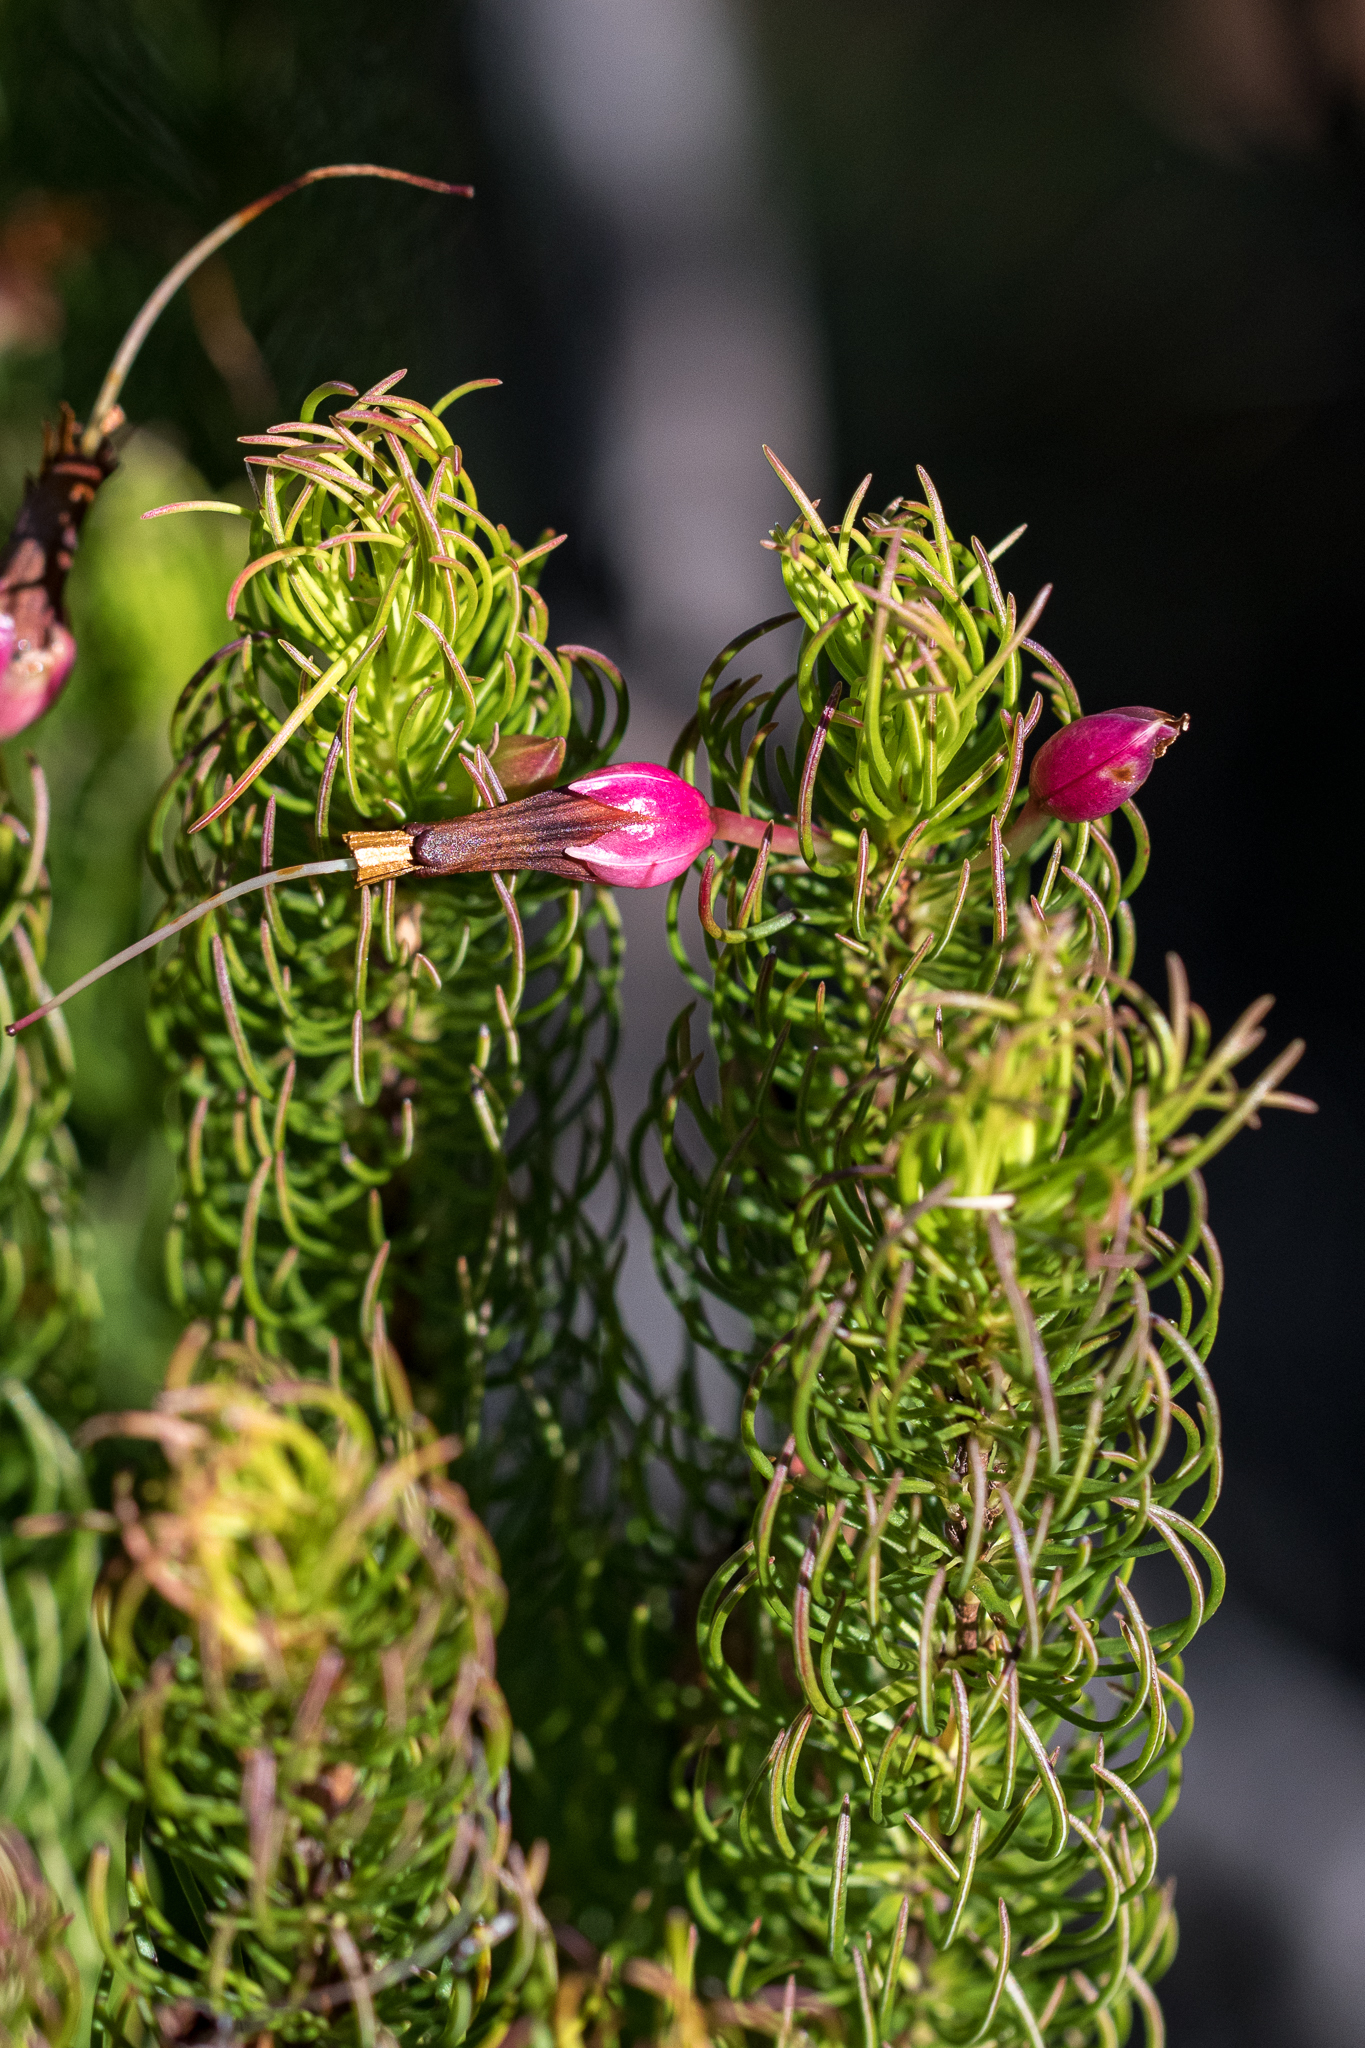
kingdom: Plantae
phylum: Tracheophyta
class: Magnoliopsida
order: Ericales
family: Ericaceae
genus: Erica
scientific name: Erica plukenetii
